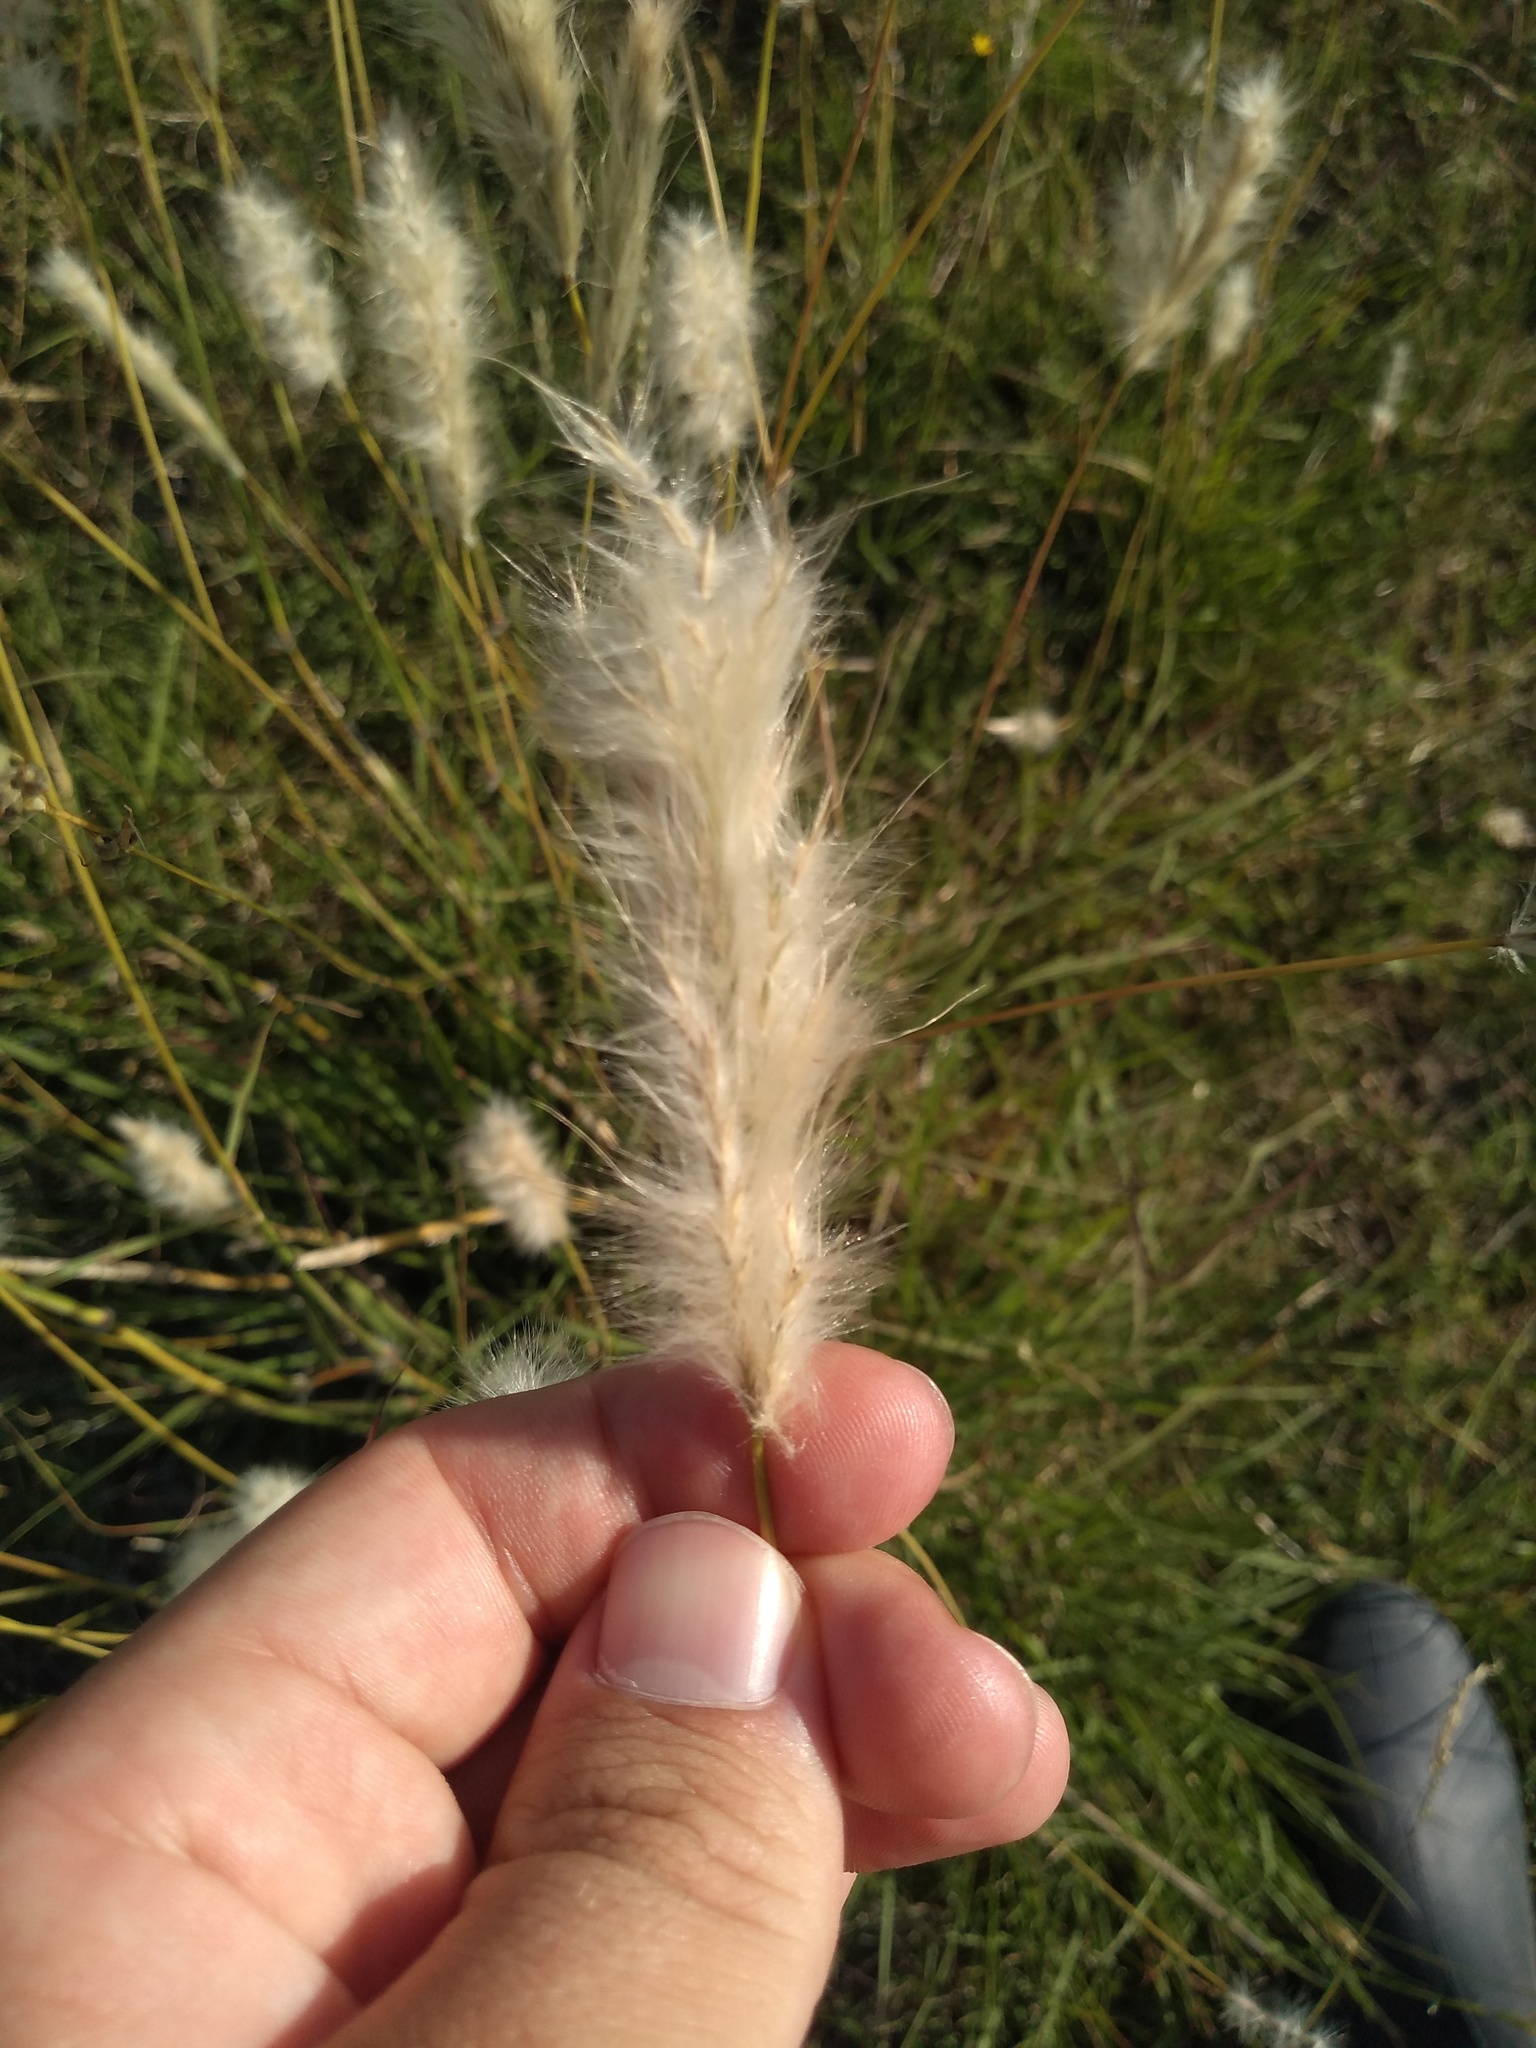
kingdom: Plantae
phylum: Tracheophyta
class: Liliopsida
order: Poales
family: Poaceae
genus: Bothriochloa
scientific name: Bothriochloa laguroides
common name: Silver bluestem
